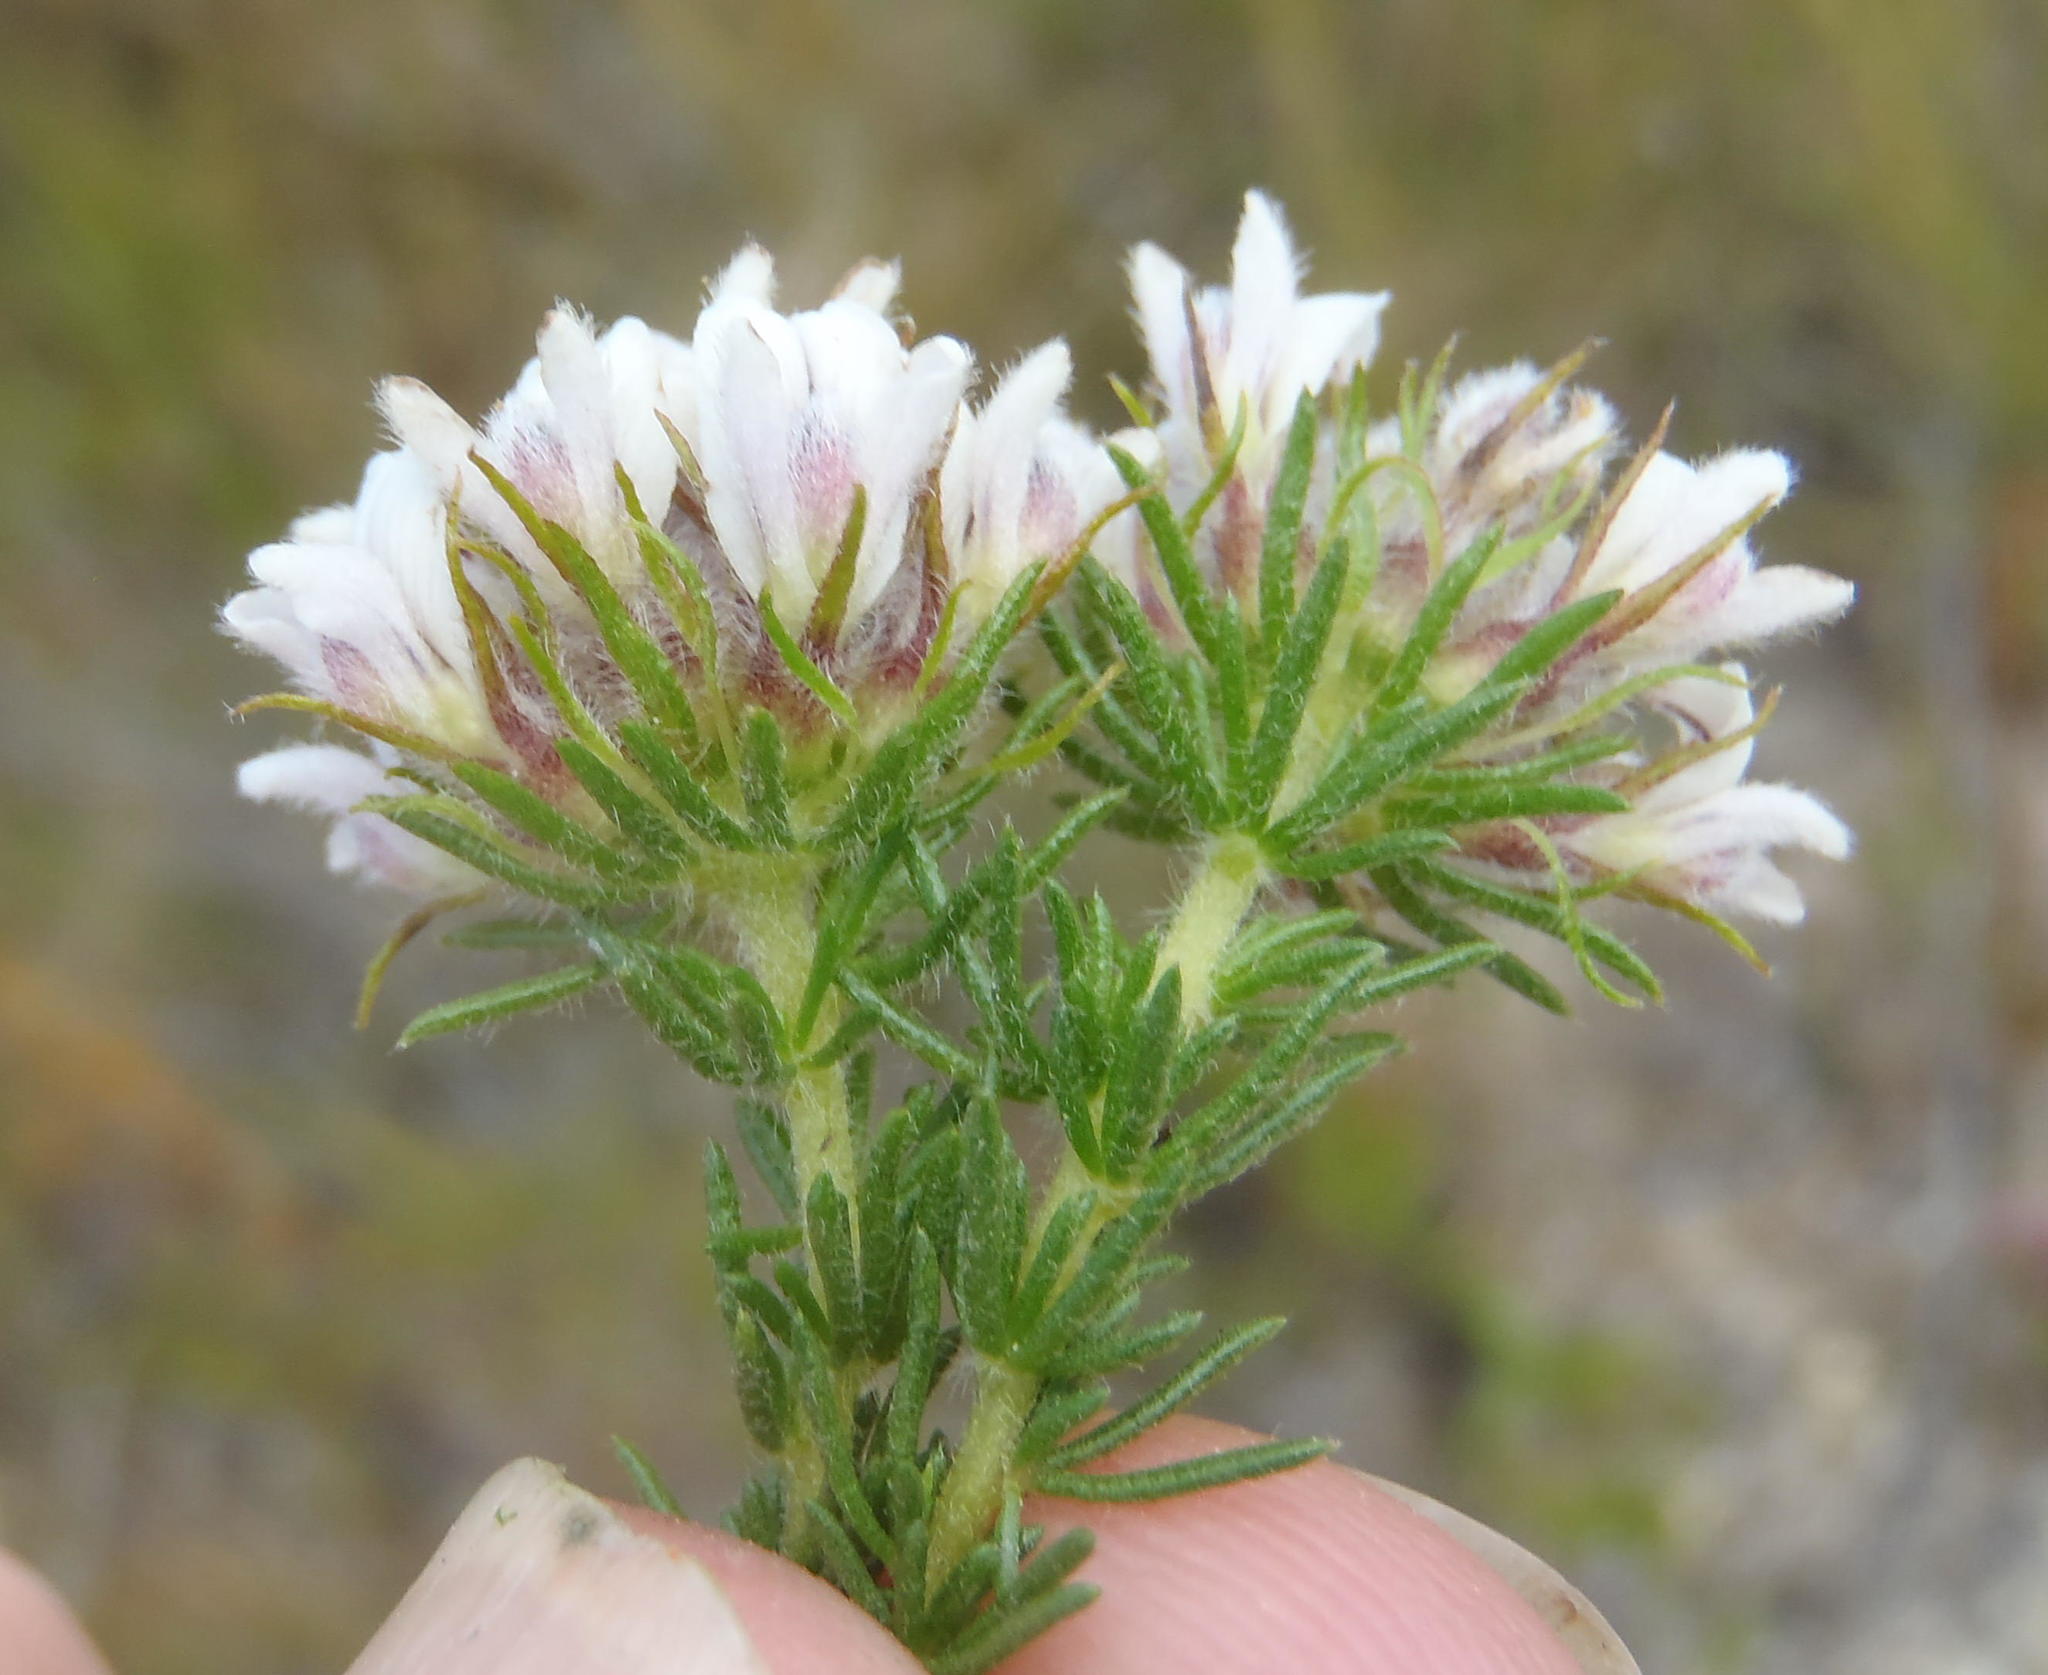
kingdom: Plantae
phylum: Tracheophyta
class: Magnoliopsida
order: Fabales
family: Fabaceae
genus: Aspalathus
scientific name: Aspalathus nigra
